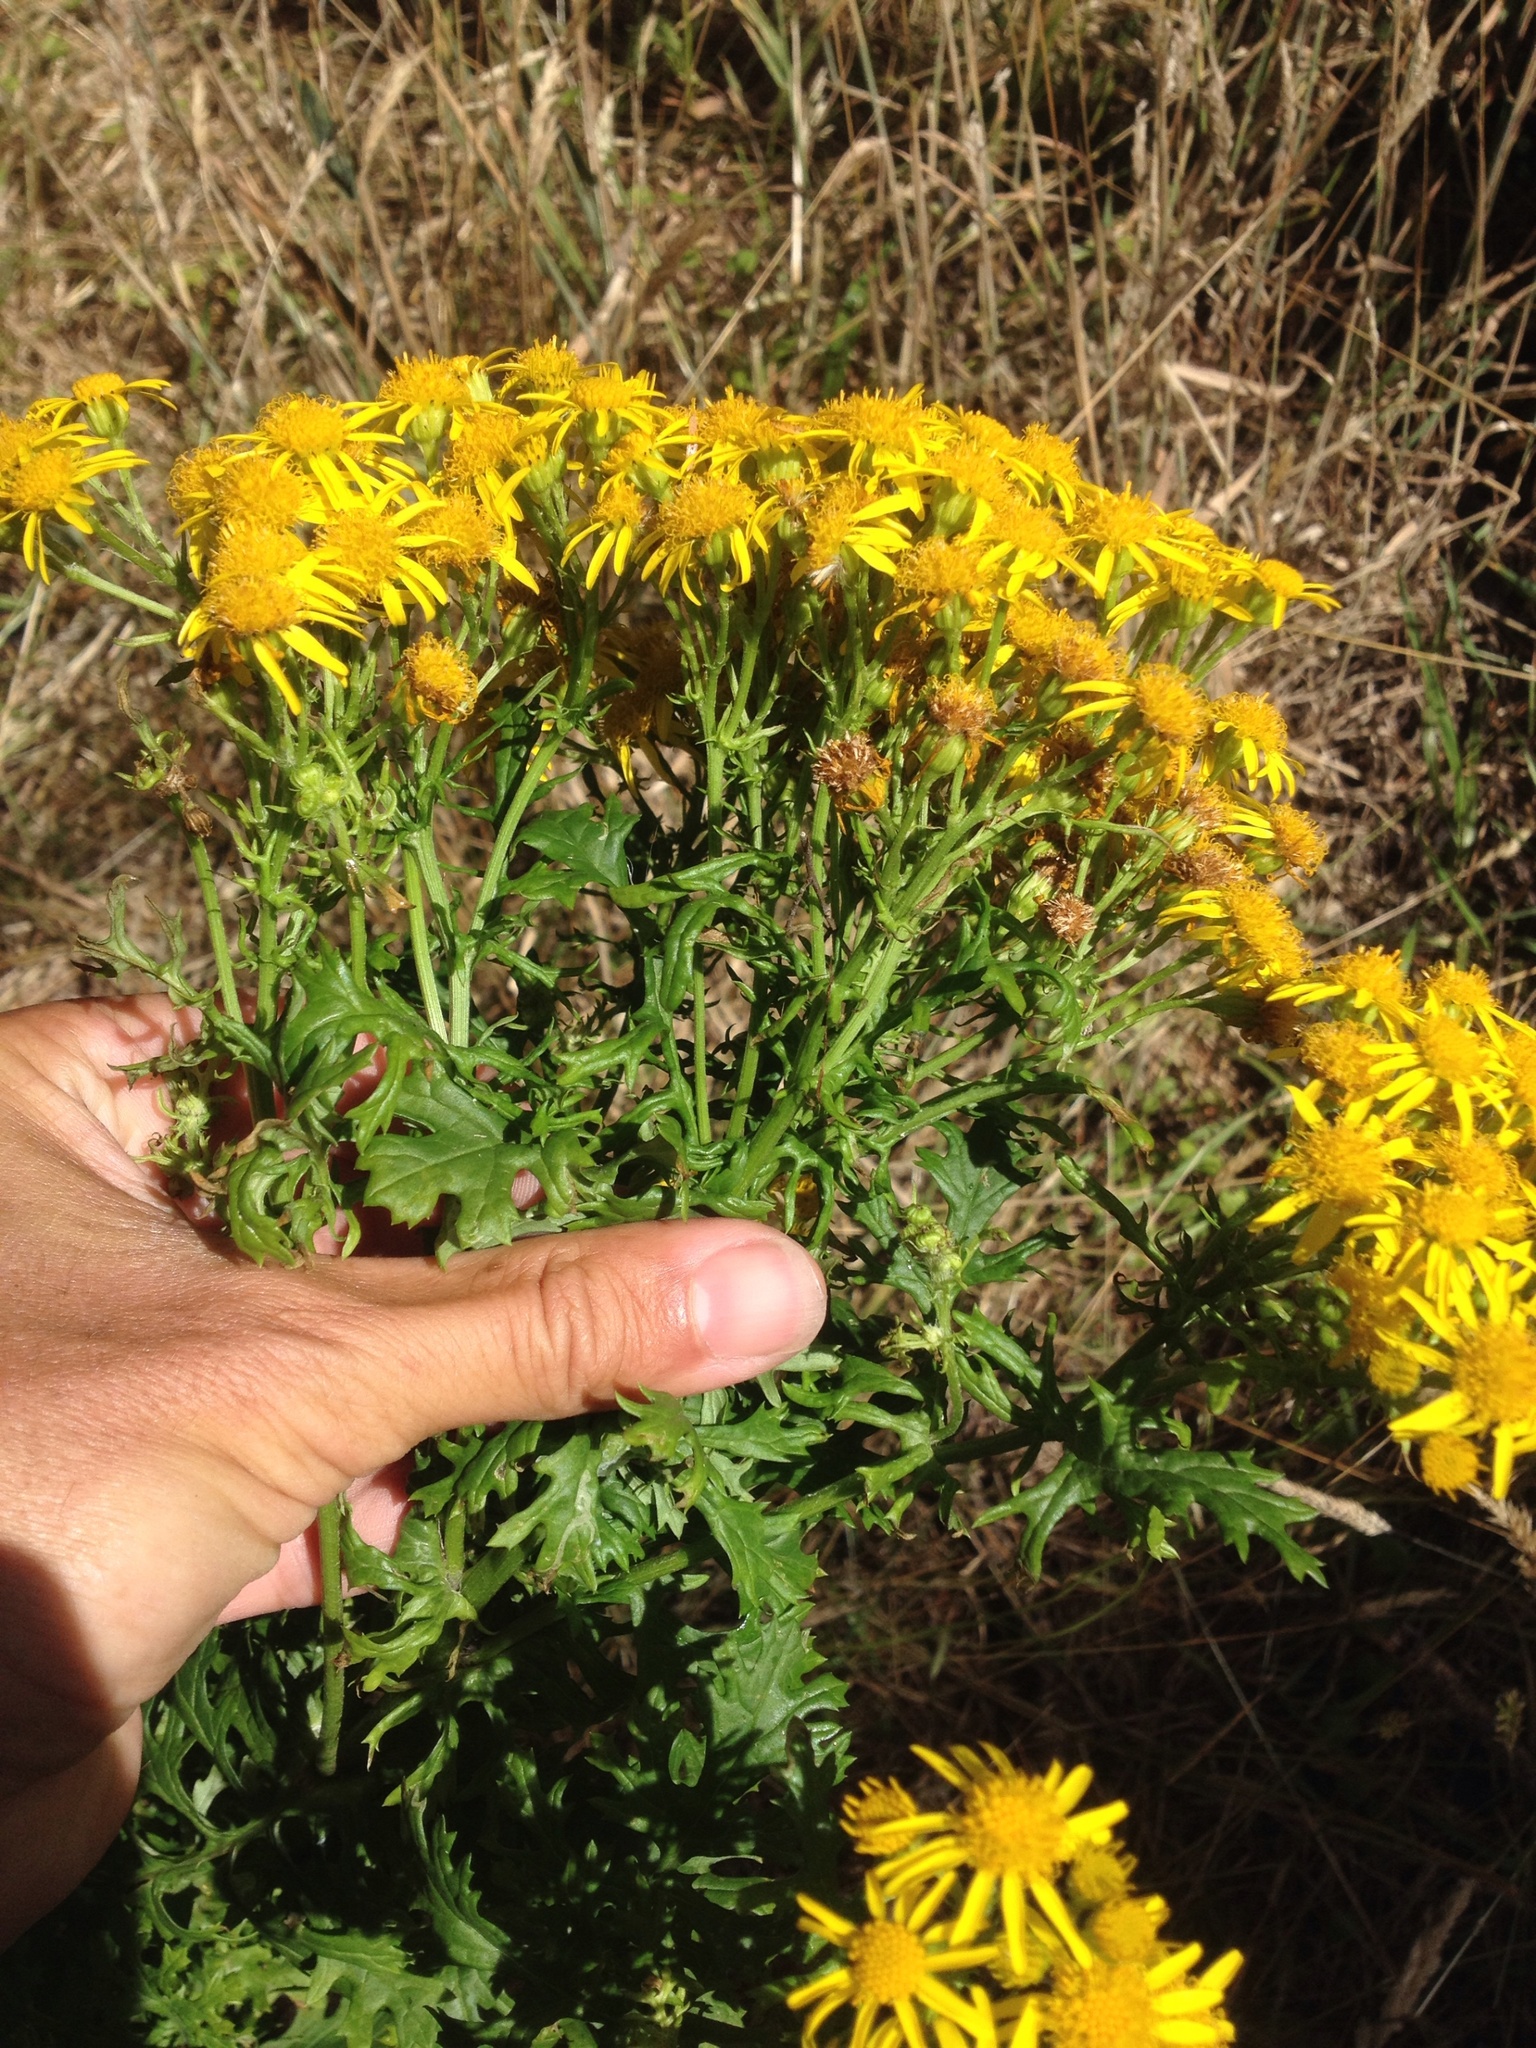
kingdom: Plantae
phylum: Tracheophyta
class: Magnoliopsida
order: Asterales
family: Asteraceae
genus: Jacobaea
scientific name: Jacobaea vulgaris
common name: Stinking willie
